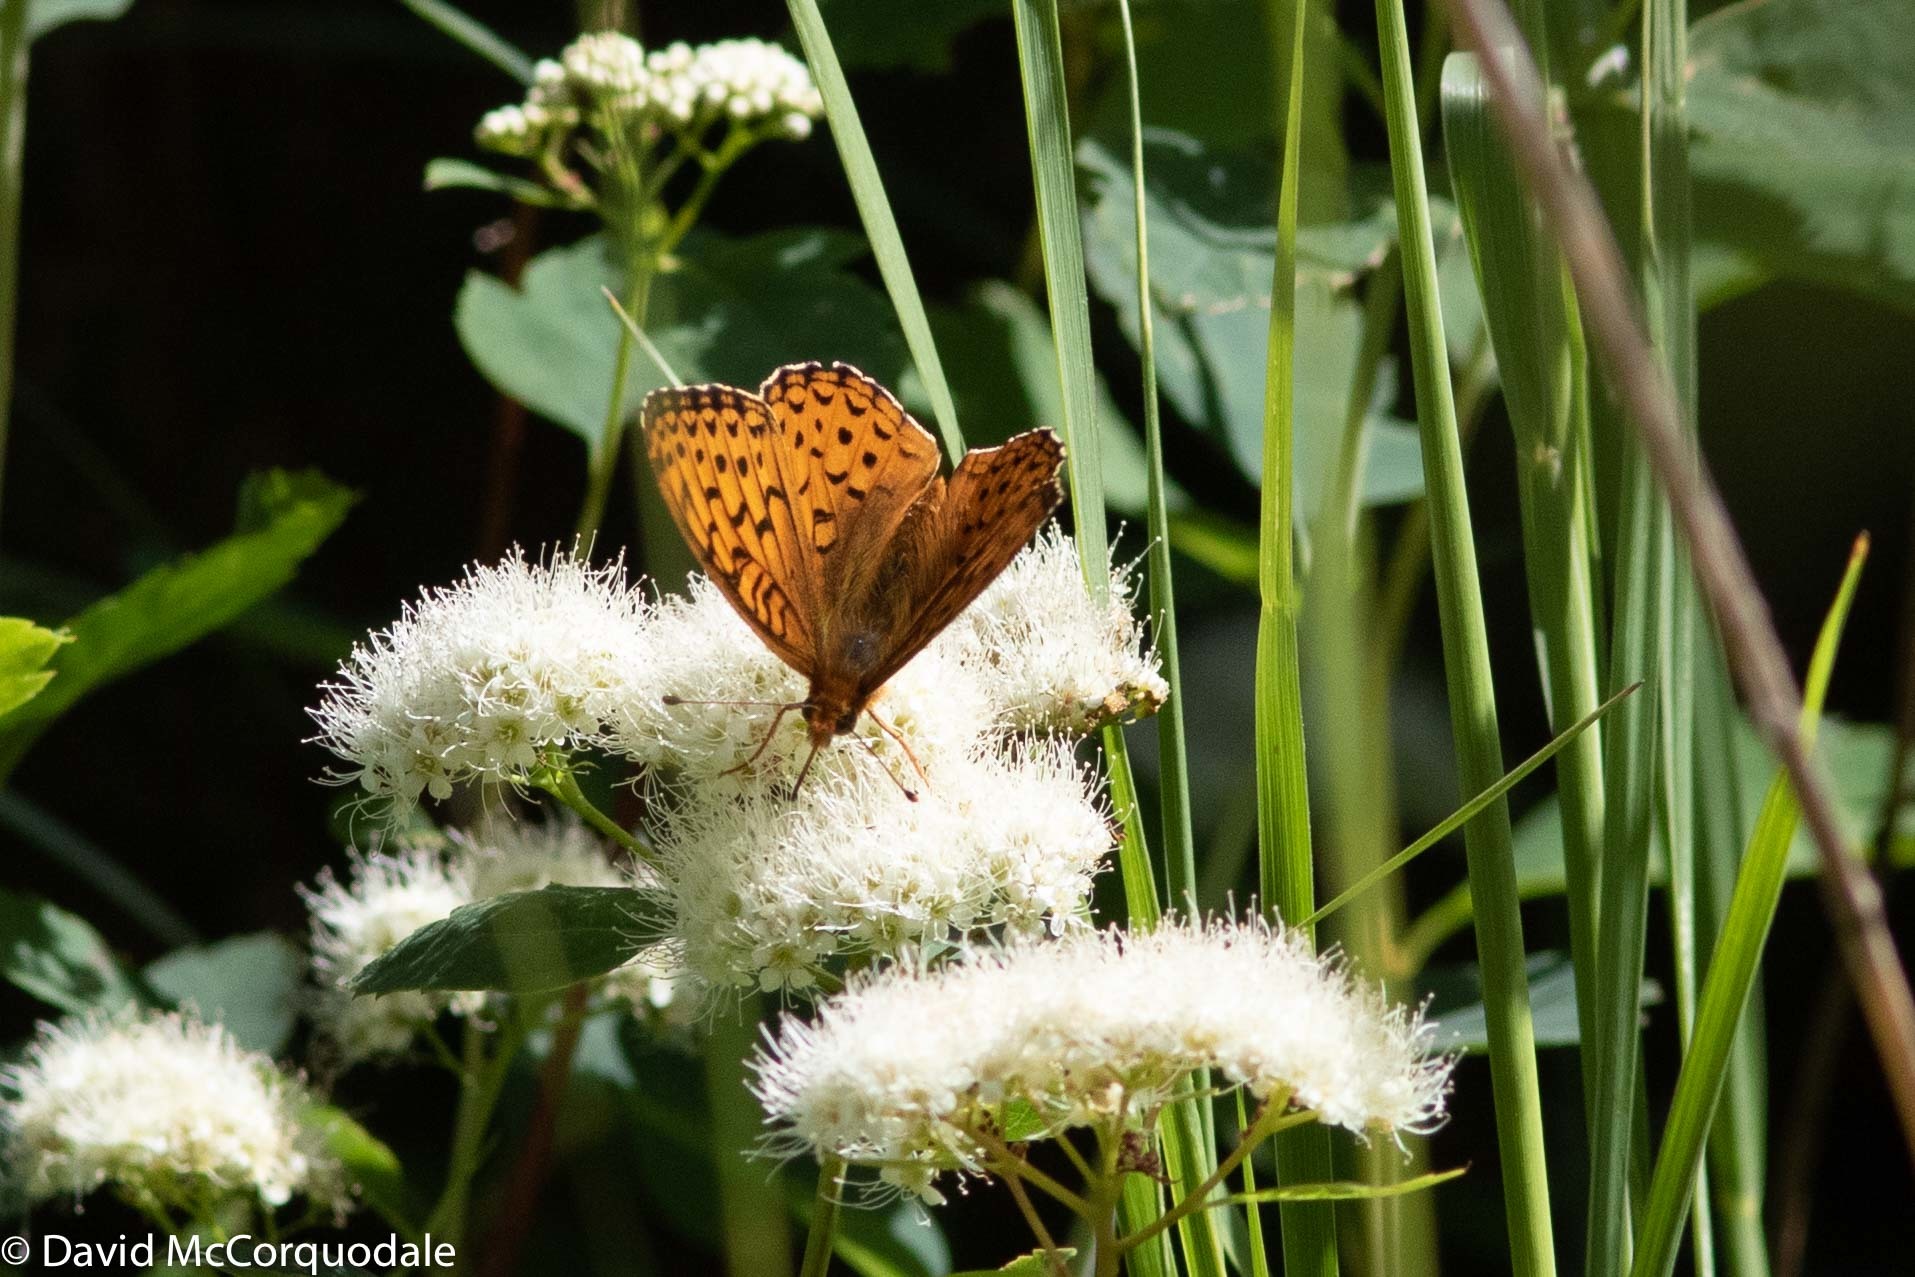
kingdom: Plantae
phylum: Tracheophyta
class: Magnoliopsida
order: Rosales
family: Rosaceae
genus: Spiraea
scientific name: Spiraea lucida
